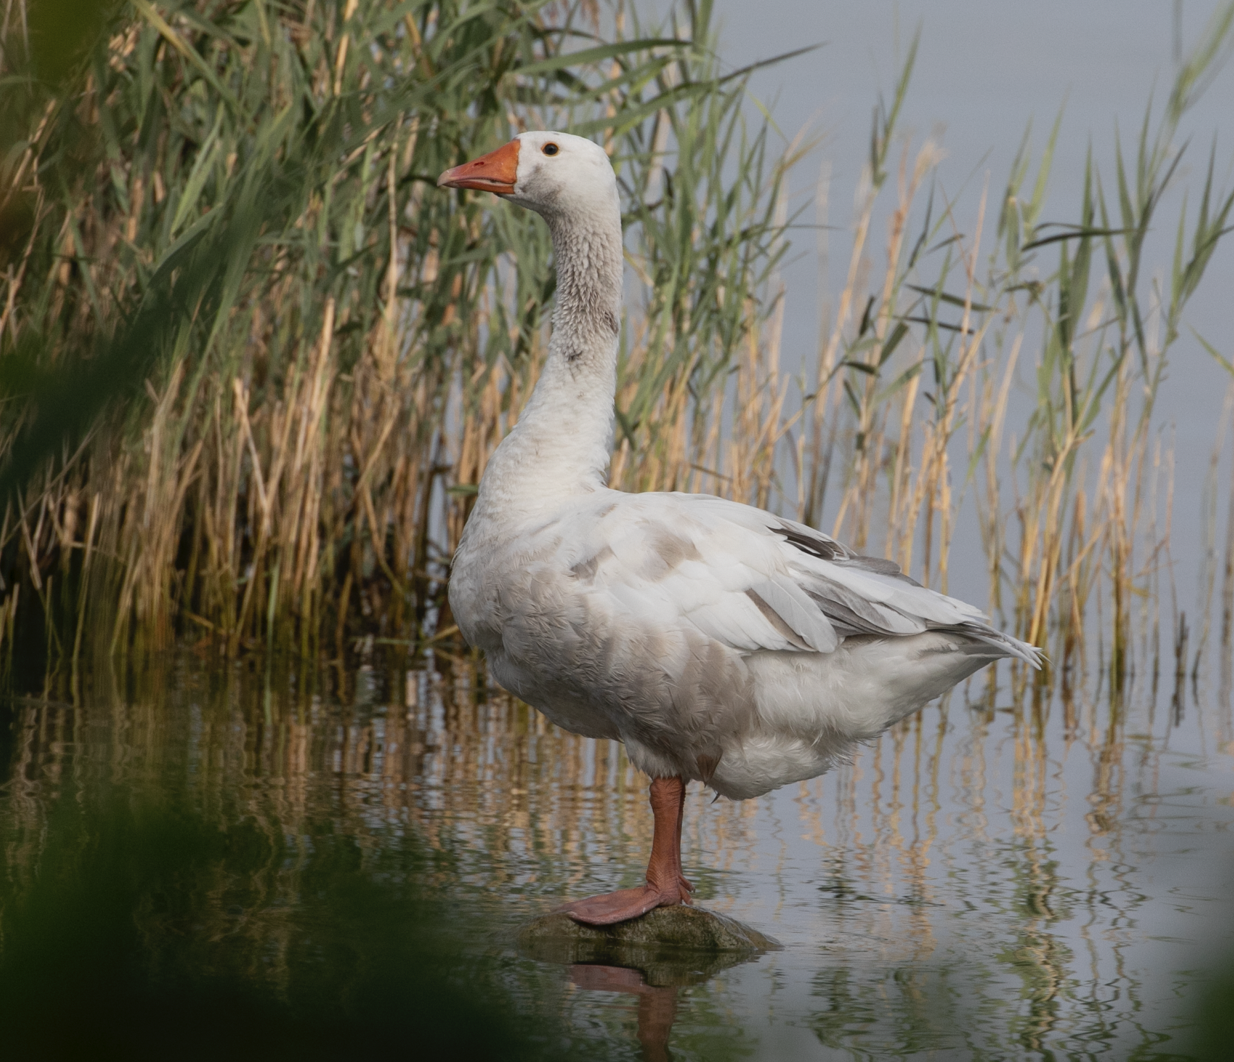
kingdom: Animalia
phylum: Chordata
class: Aves
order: Anseriformes
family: Anatidae
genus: Anser
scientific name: Anser anser
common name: Greylag goose
